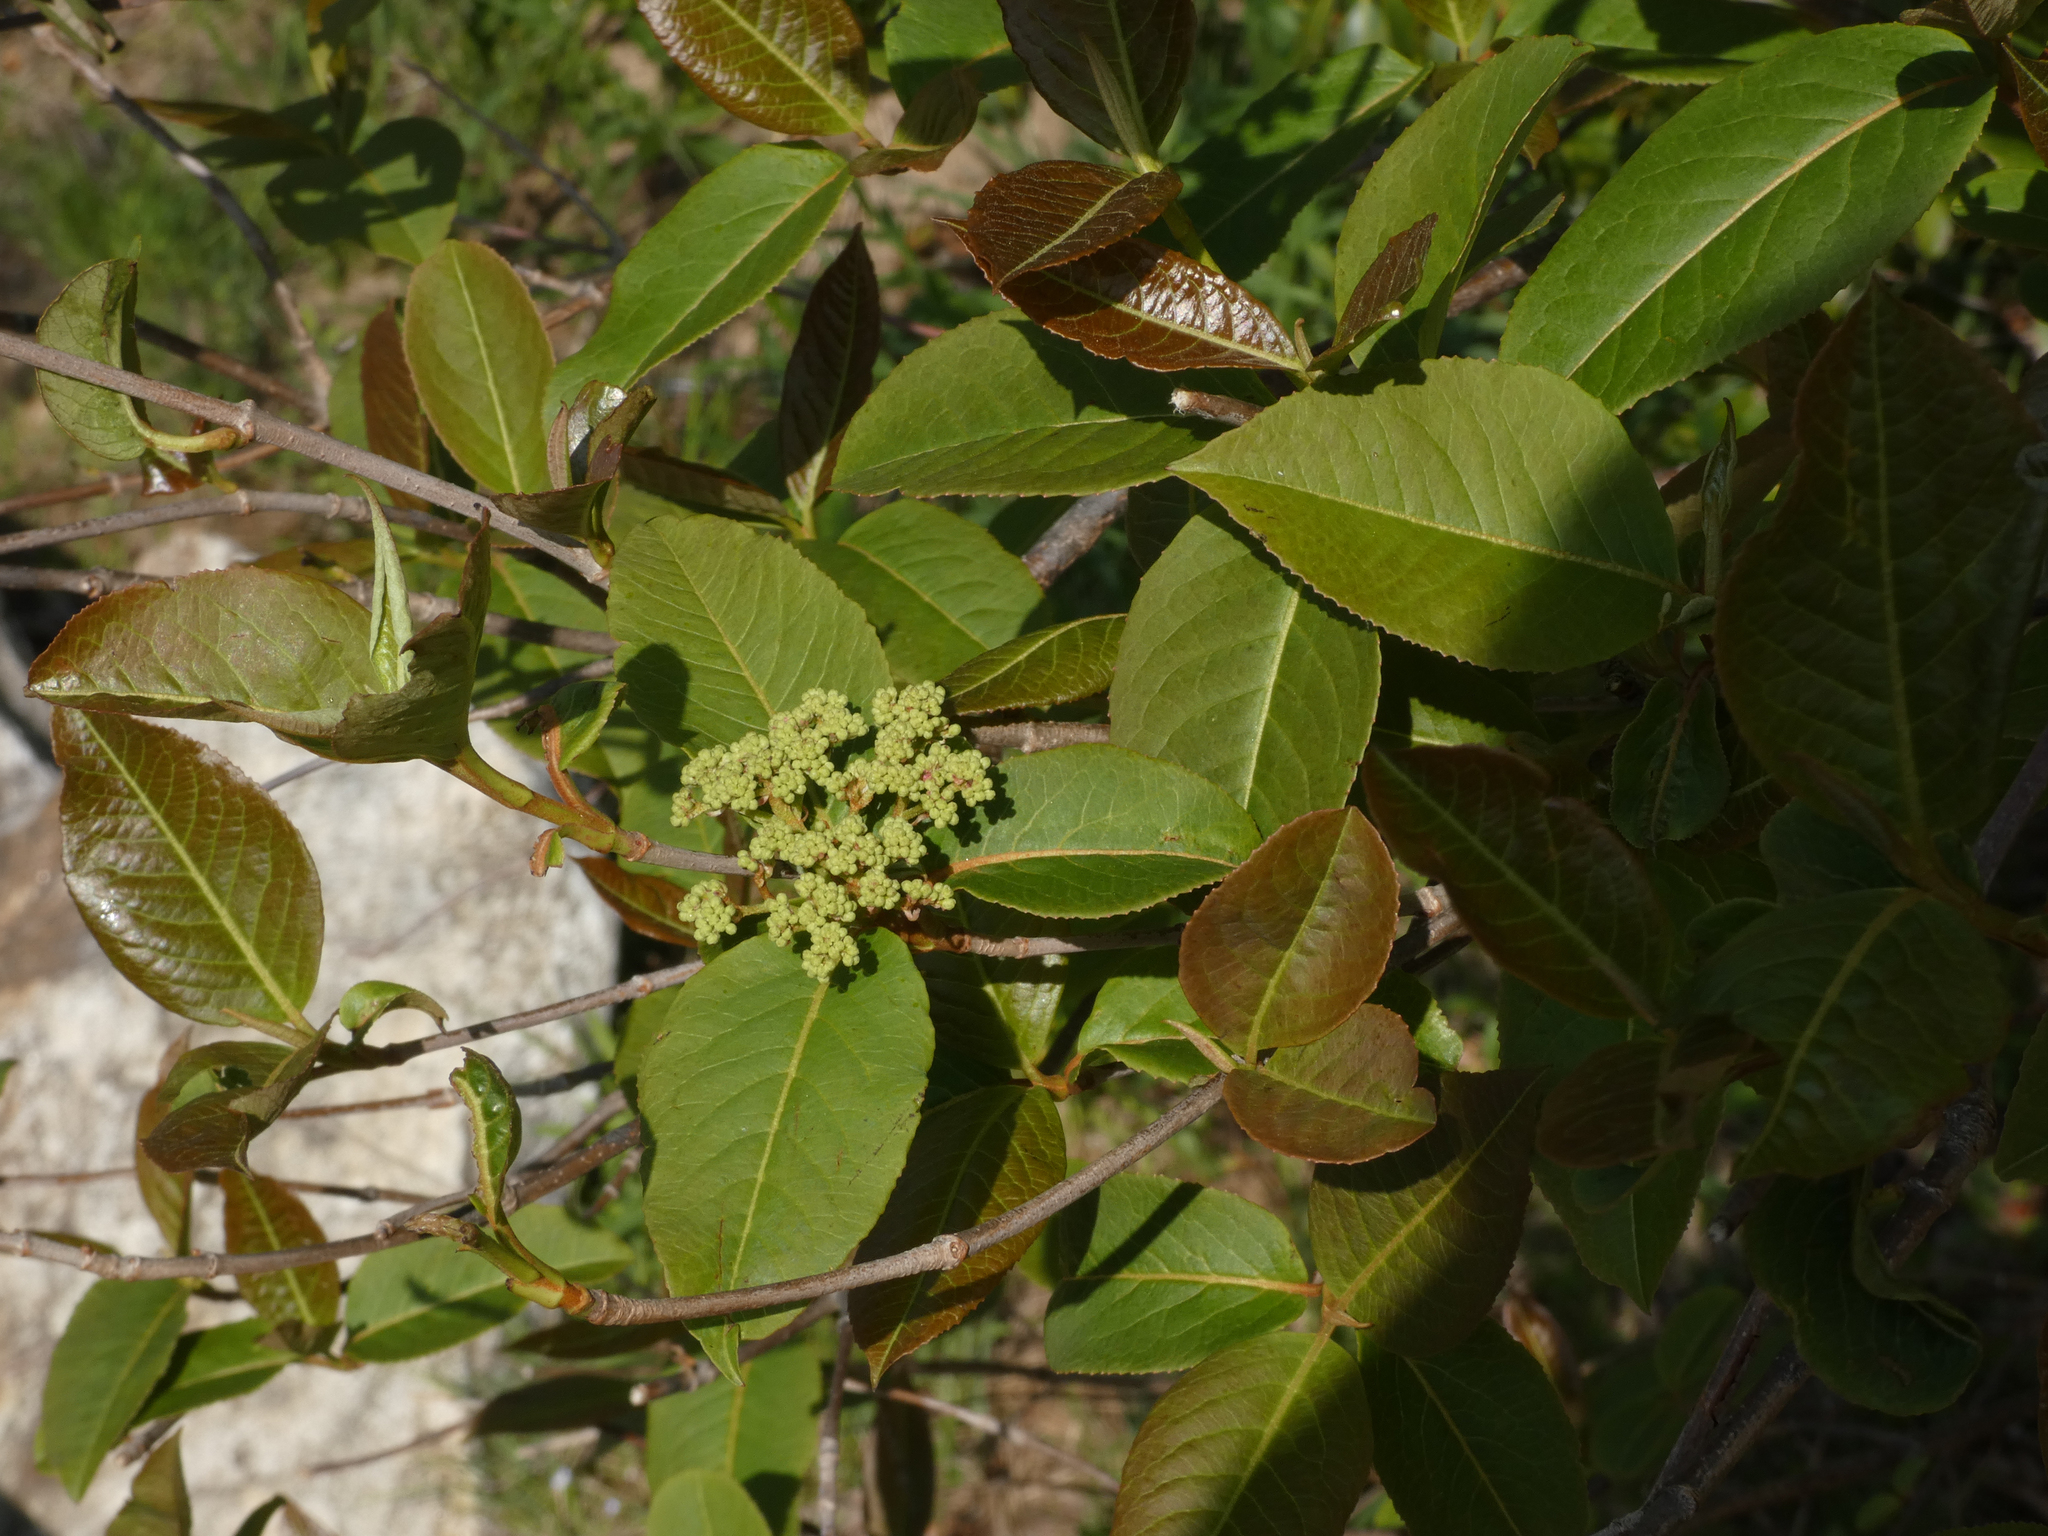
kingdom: Plantae
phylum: Tracheophyta
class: Magnoliopsida
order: Dipsacales
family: Viburnaceae
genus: Viburnum
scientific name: Viburnum cassinoides
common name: Swamp haw
